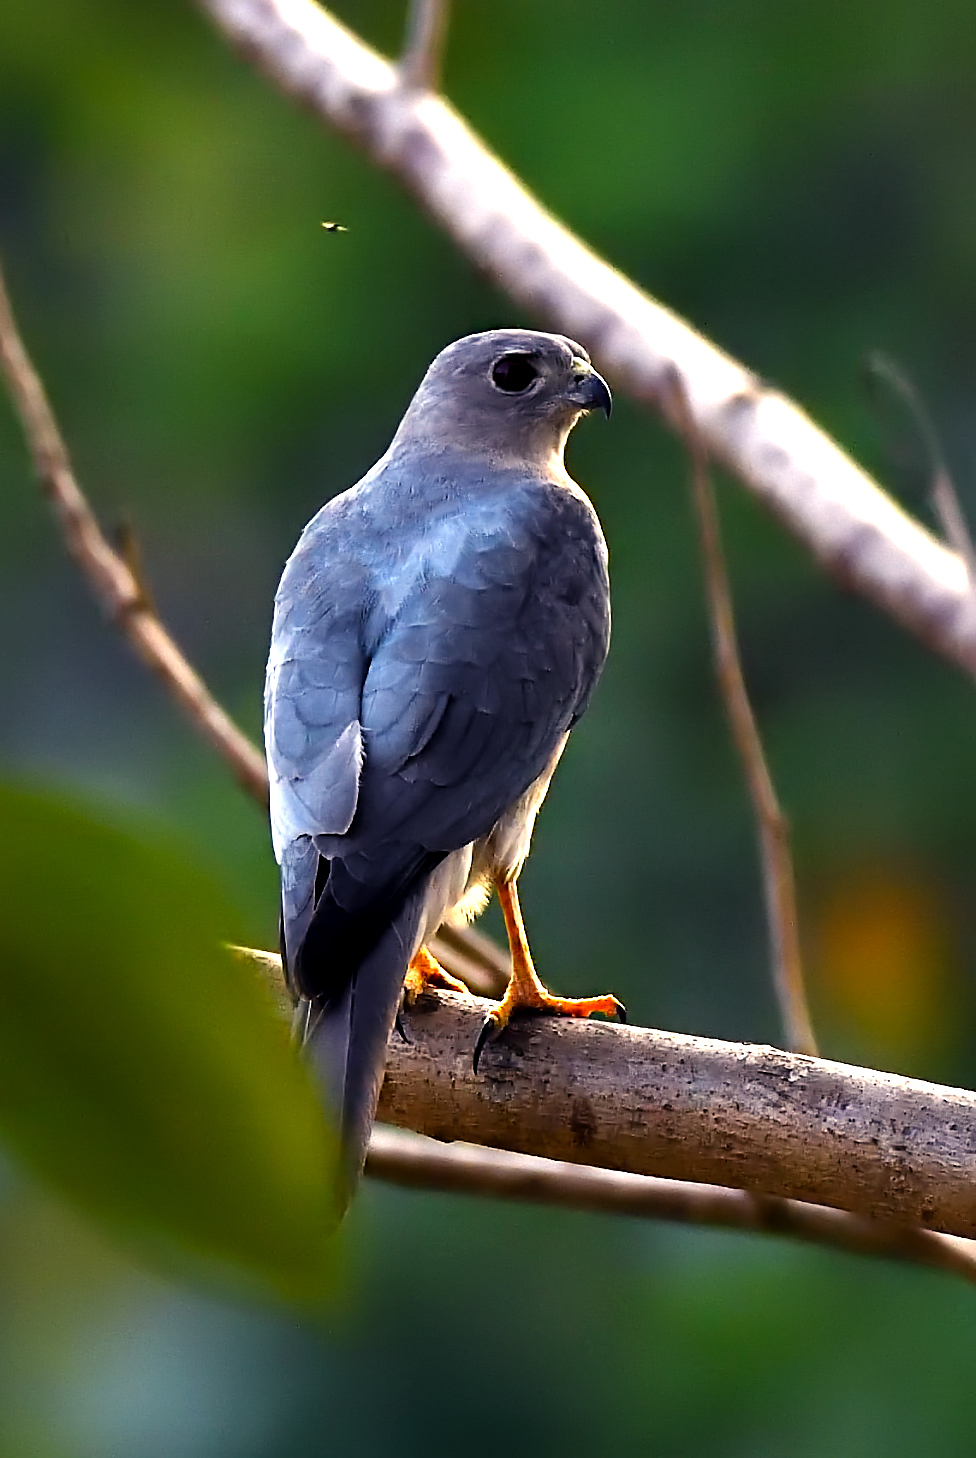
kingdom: Animalia
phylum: Chordata
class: Aves
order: Accipitriformes
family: Accipitridae
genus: Accipiter
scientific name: Accipiter badius
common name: Shikra
